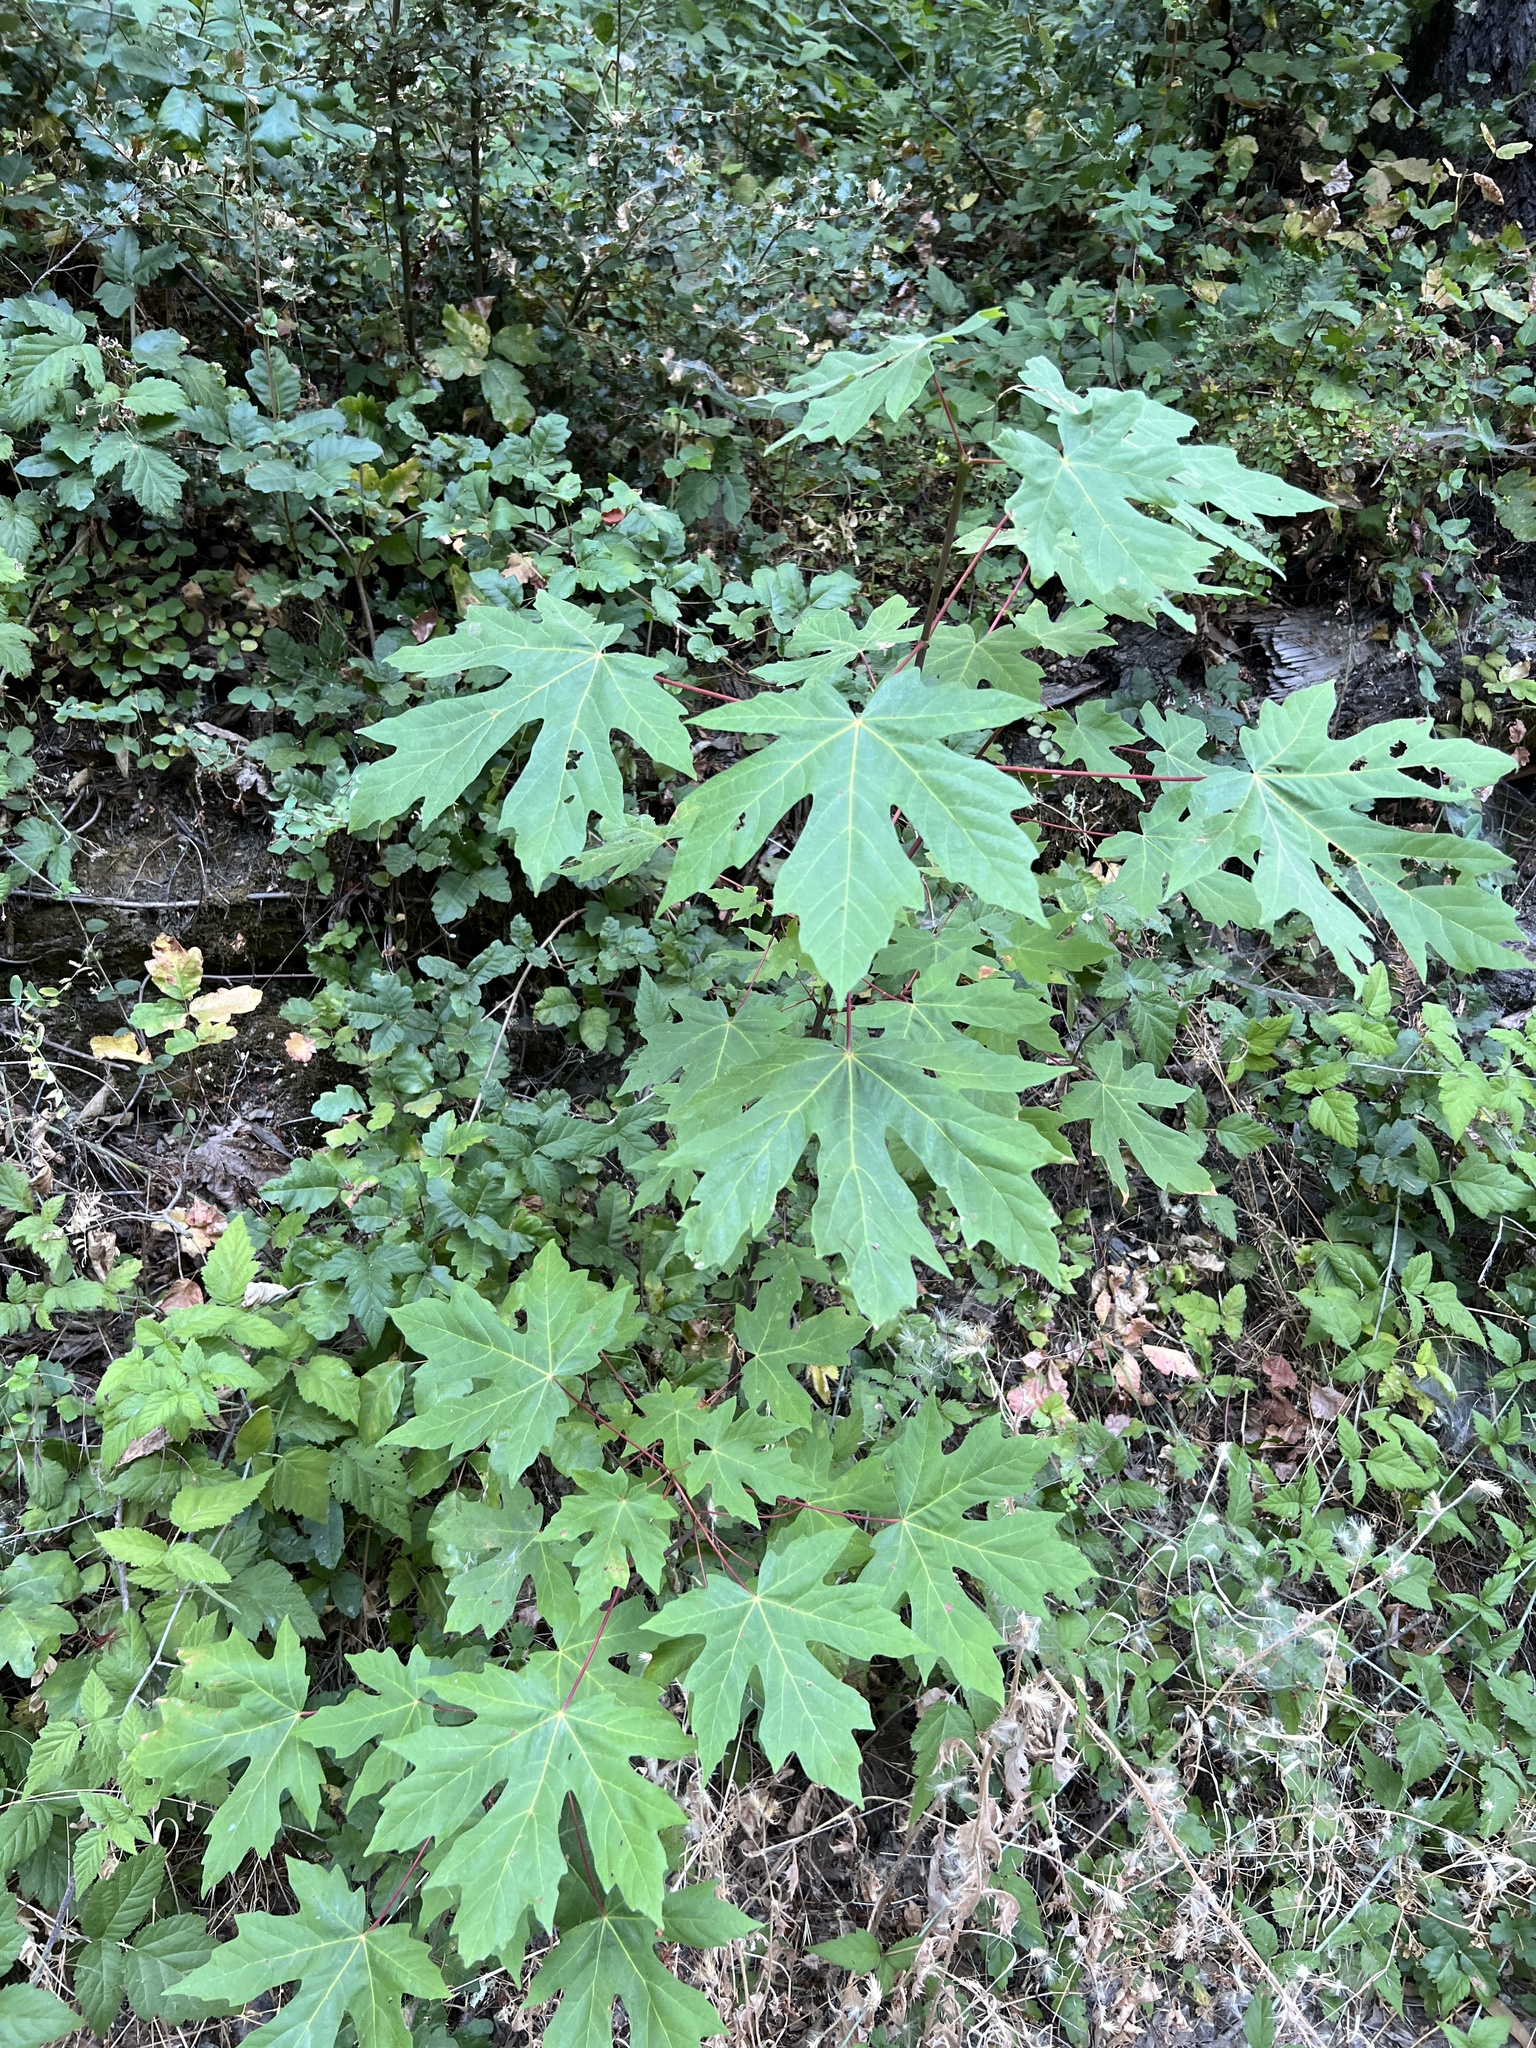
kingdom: Plantae
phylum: Tracheophyta
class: Magnoliopsida
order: Sapindales
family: Sapindaceae
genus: Acer
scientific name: Acer macrophyllum
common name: Oregon maple
